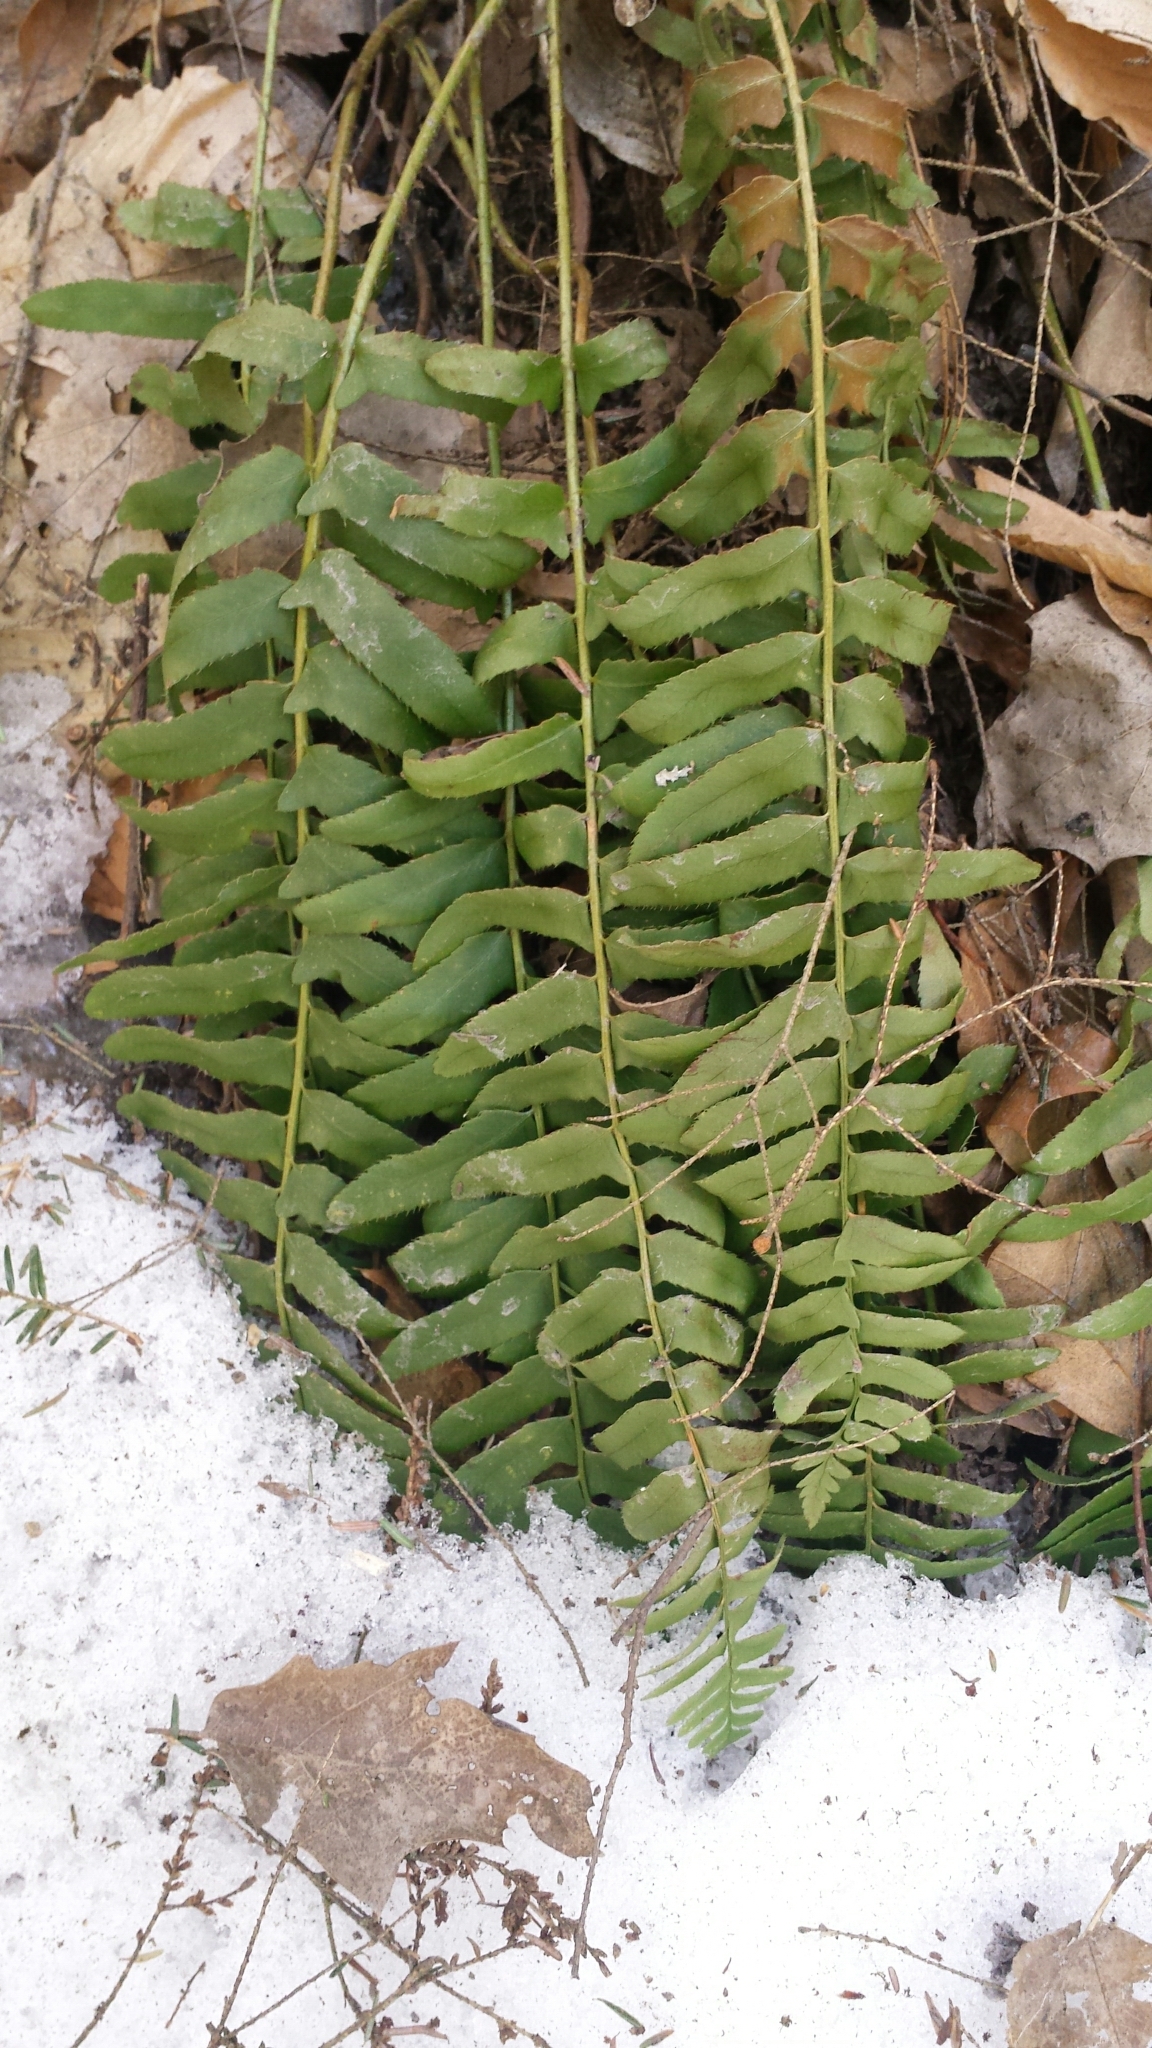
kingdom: Plantae
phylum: Tracheophyta
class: Polypodiopsida
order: Polypodiales
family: Dryopteridaceae
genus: Polystichum
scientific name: Polystichum acrostichoides
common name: Christmas fern
